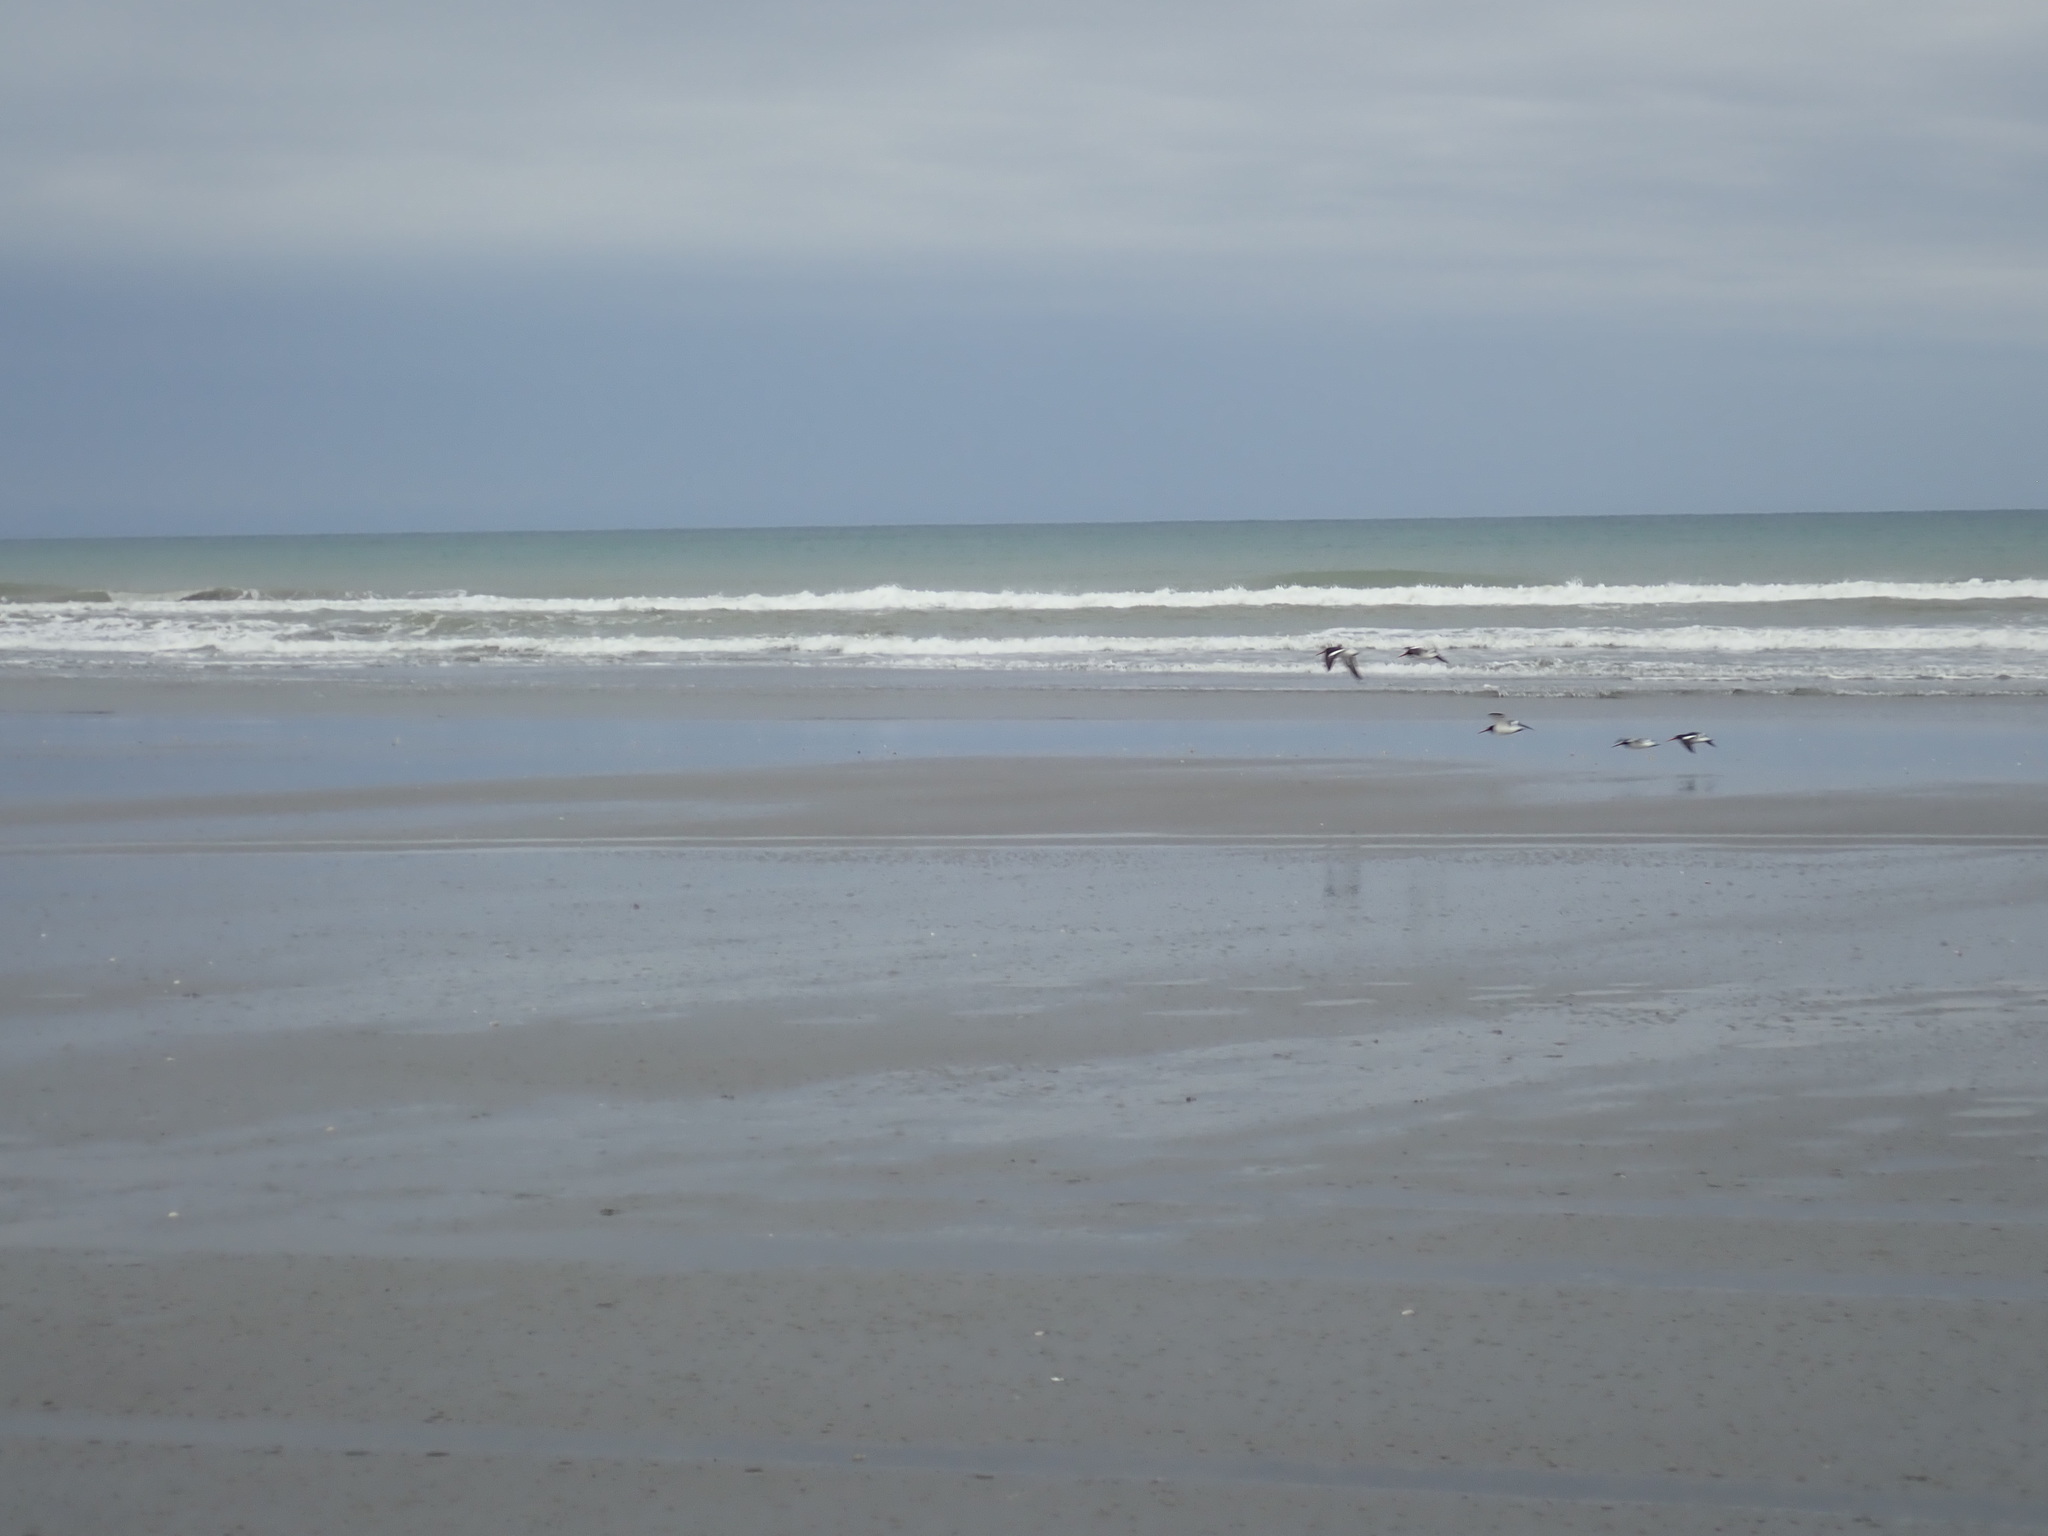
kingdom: Animalia
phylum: Chordata
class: Aves
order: Charadriiformes
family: Haematopodidae
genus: Haematopus
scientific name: Haematopus finschi
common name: South island oystercatcher
